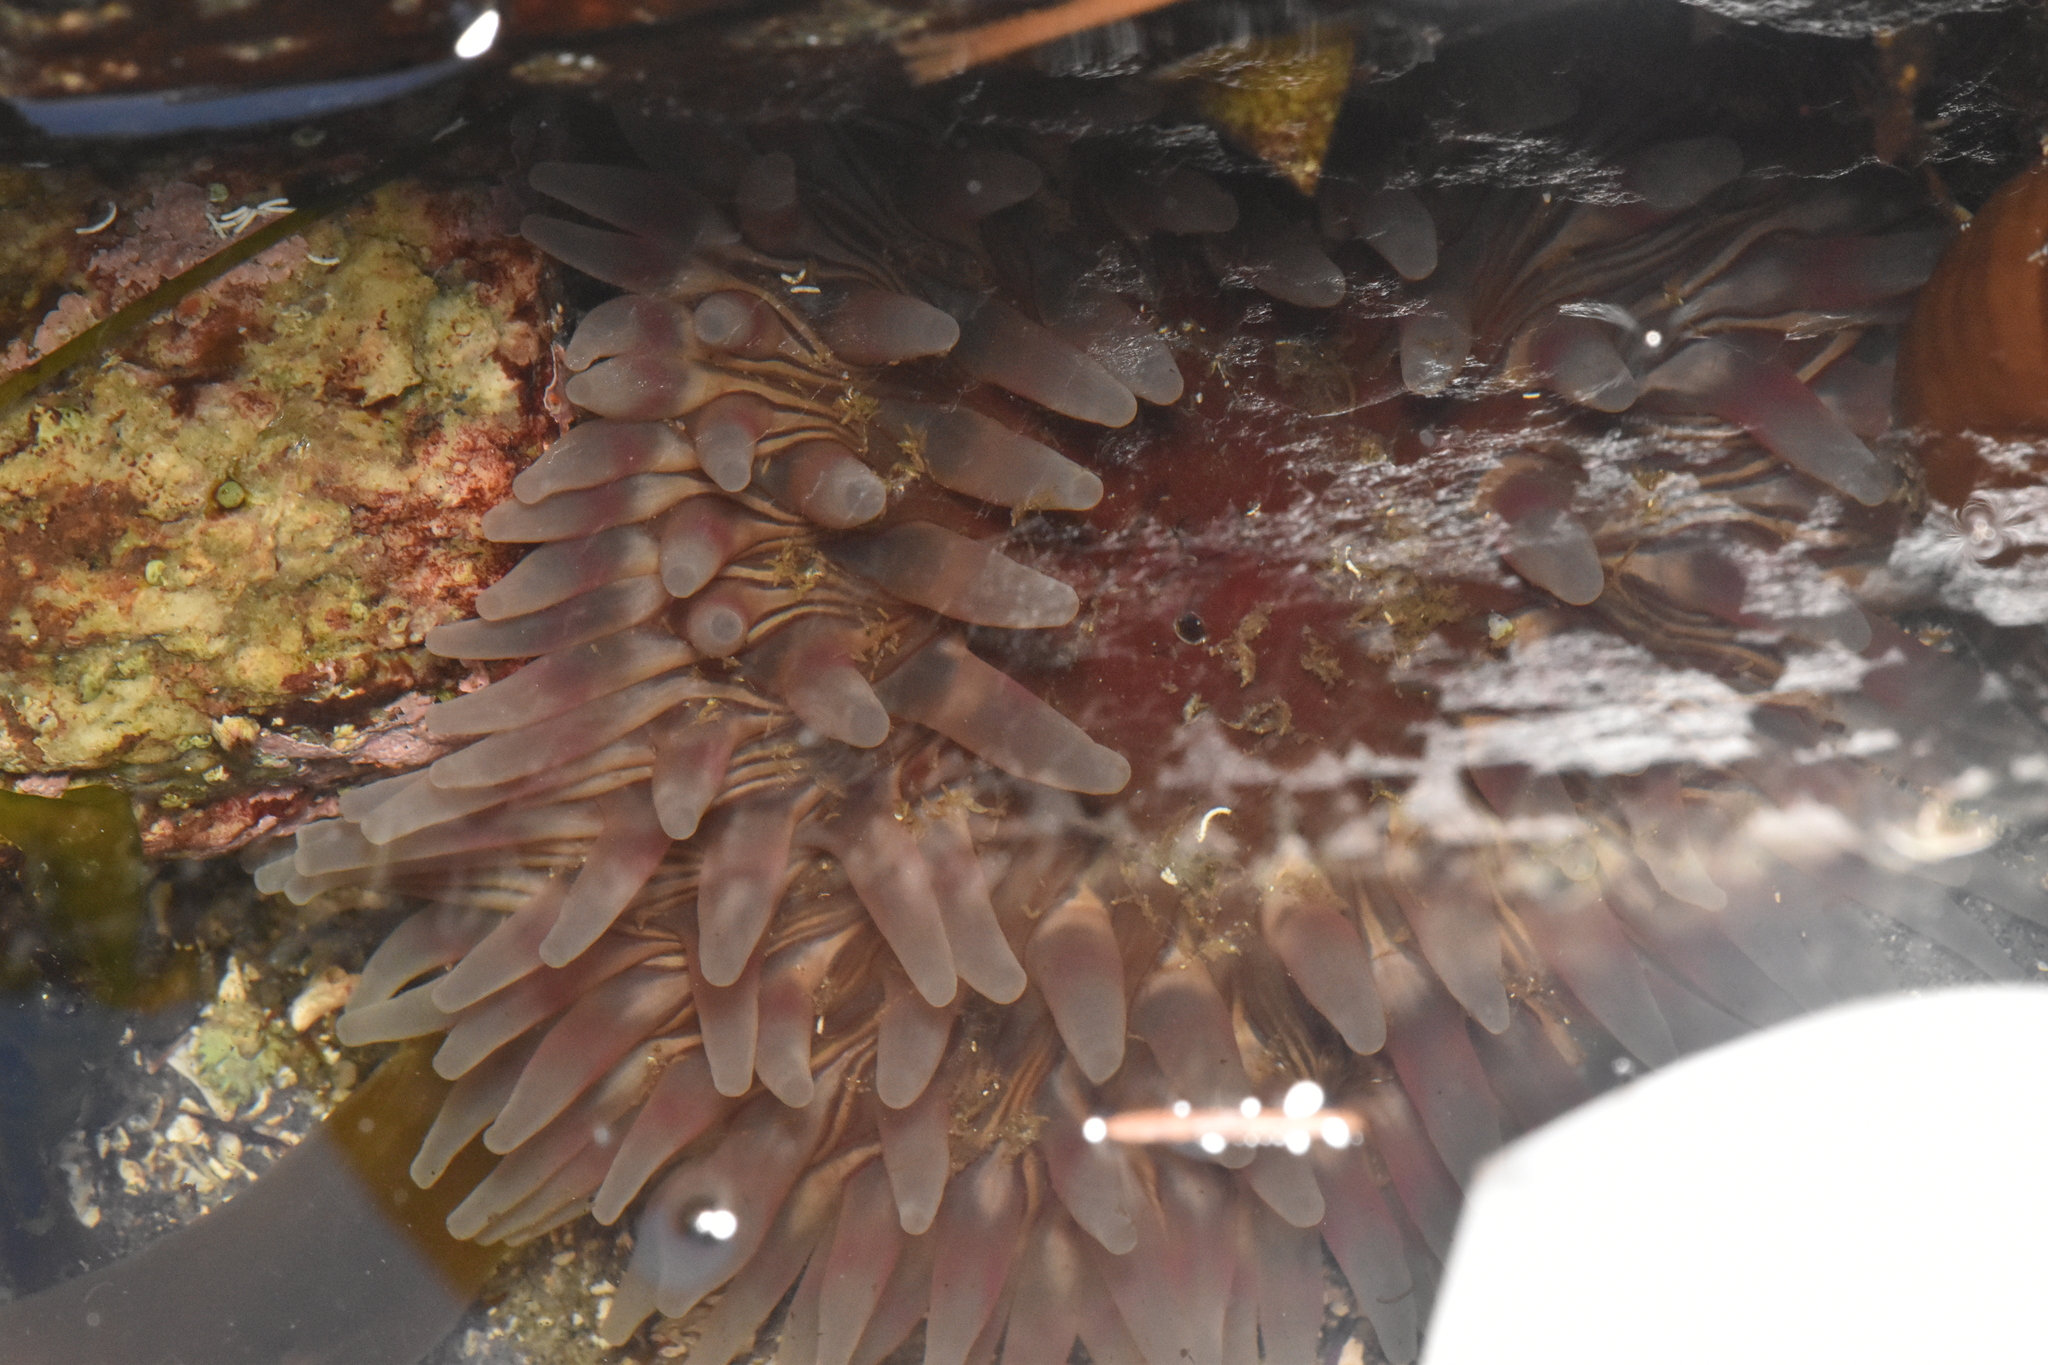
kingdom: Animalia
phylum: Cnidaria
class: Anthozoa
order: Actiniaria
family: Actiniidae
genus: Urticina
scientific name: Urticina clandestina
